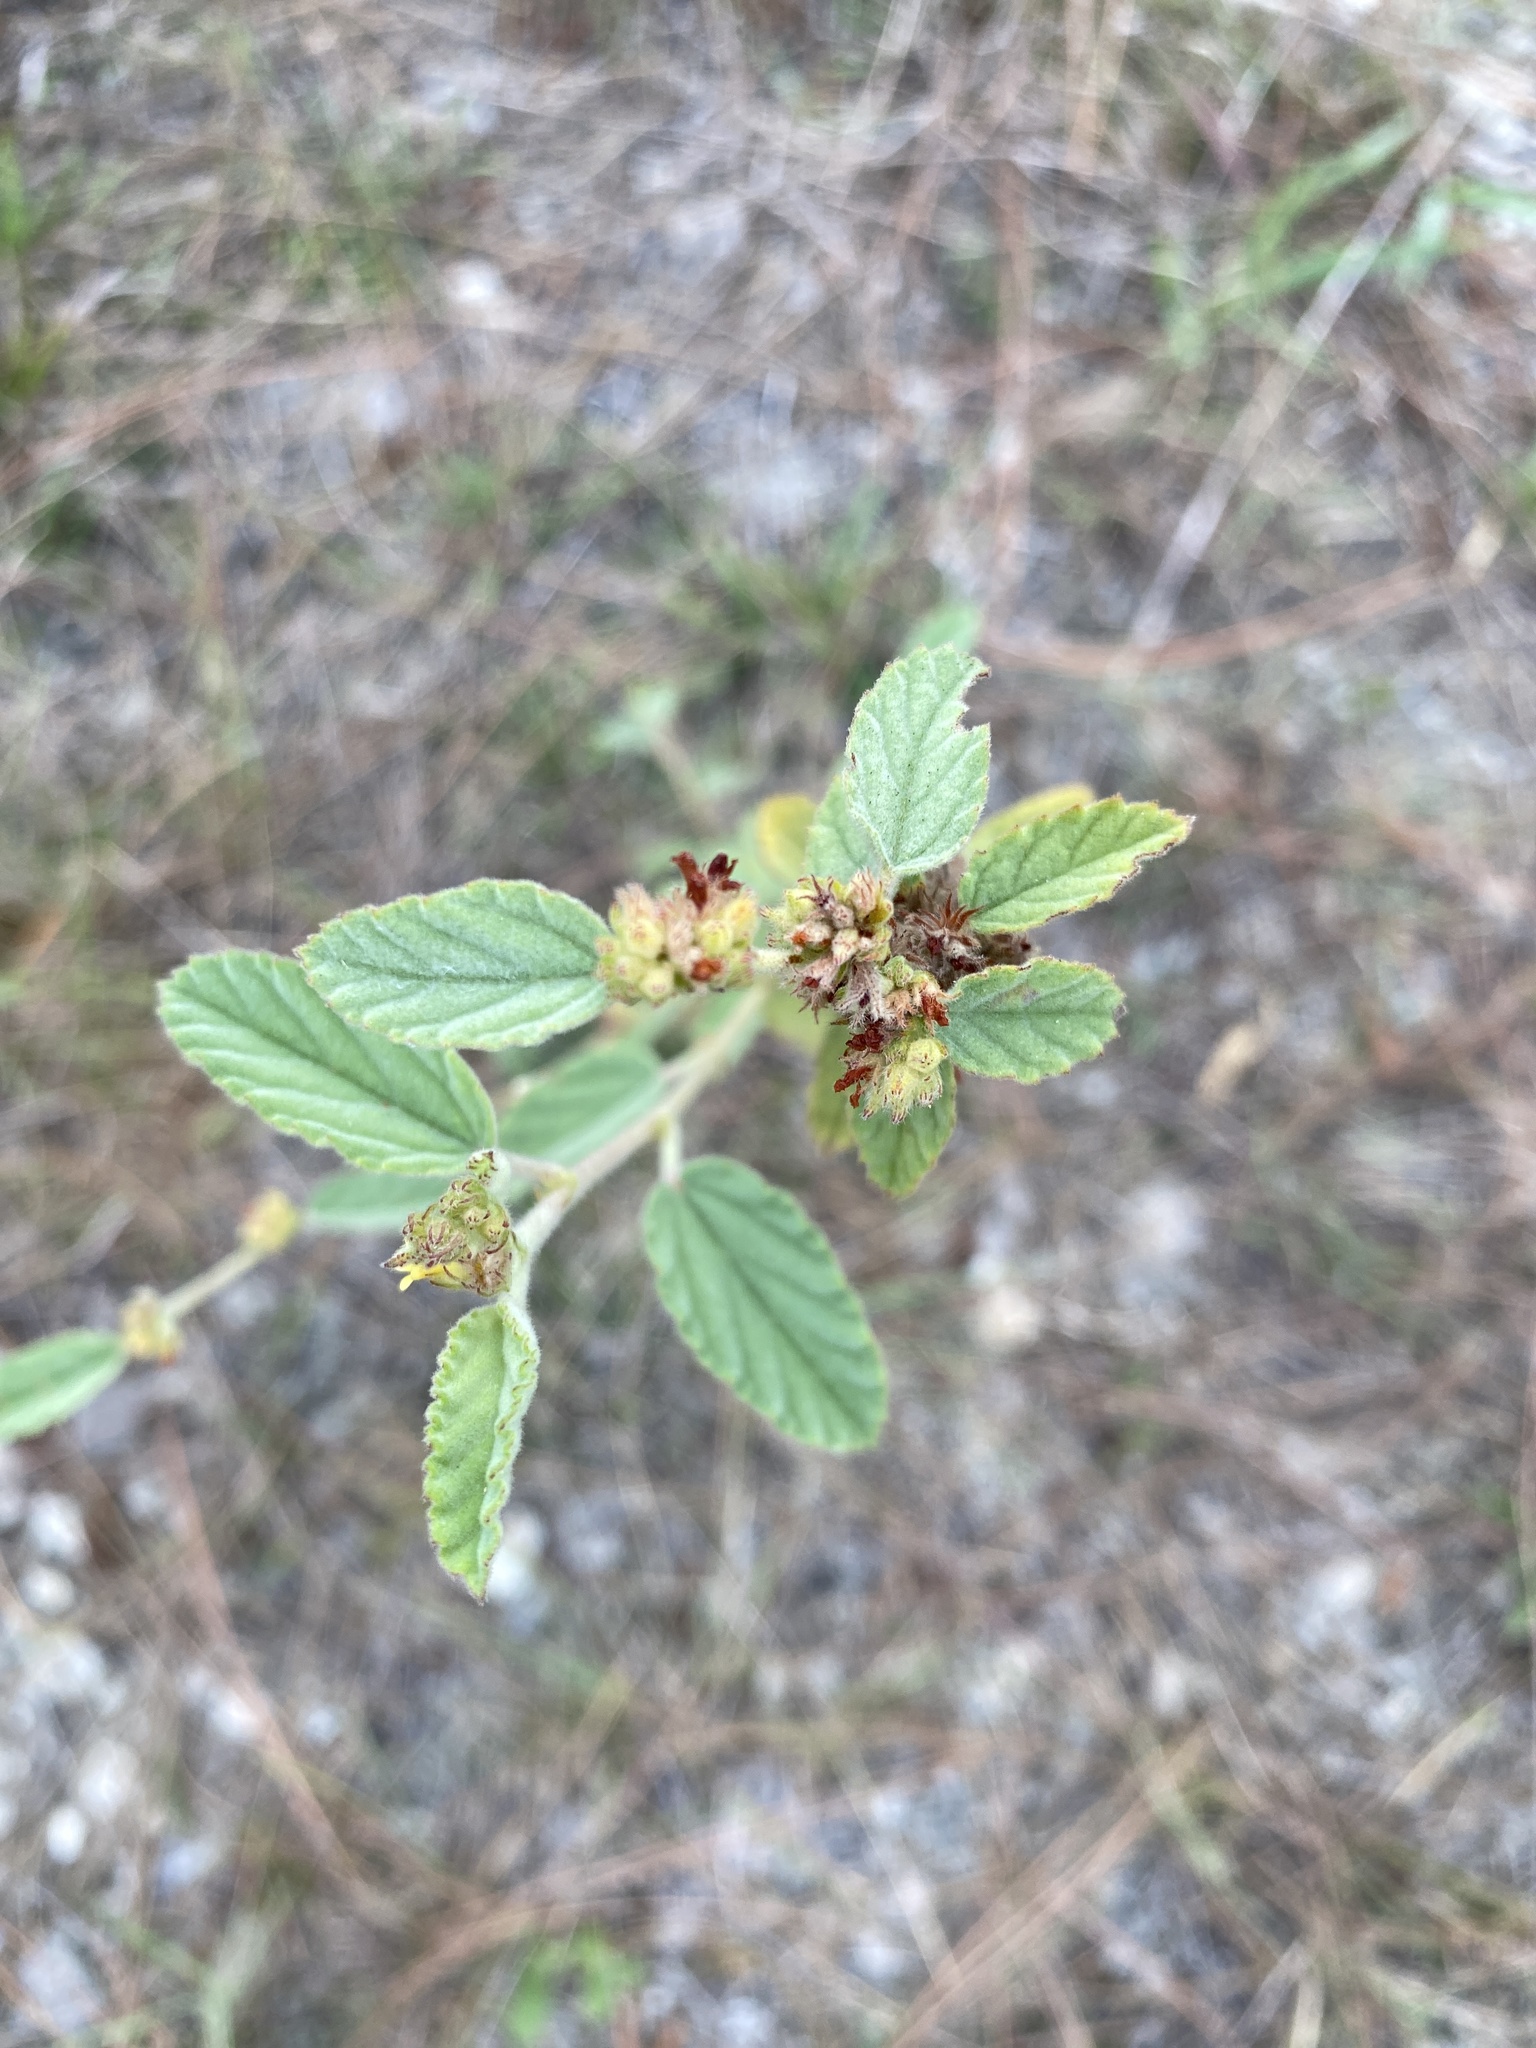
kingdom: Plantae
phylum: Tracheophyta
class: Magnoliopsida
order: Malvales
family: Malvaceae
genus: Waltheria
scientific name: Waltheria indica
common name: Leather-coat
